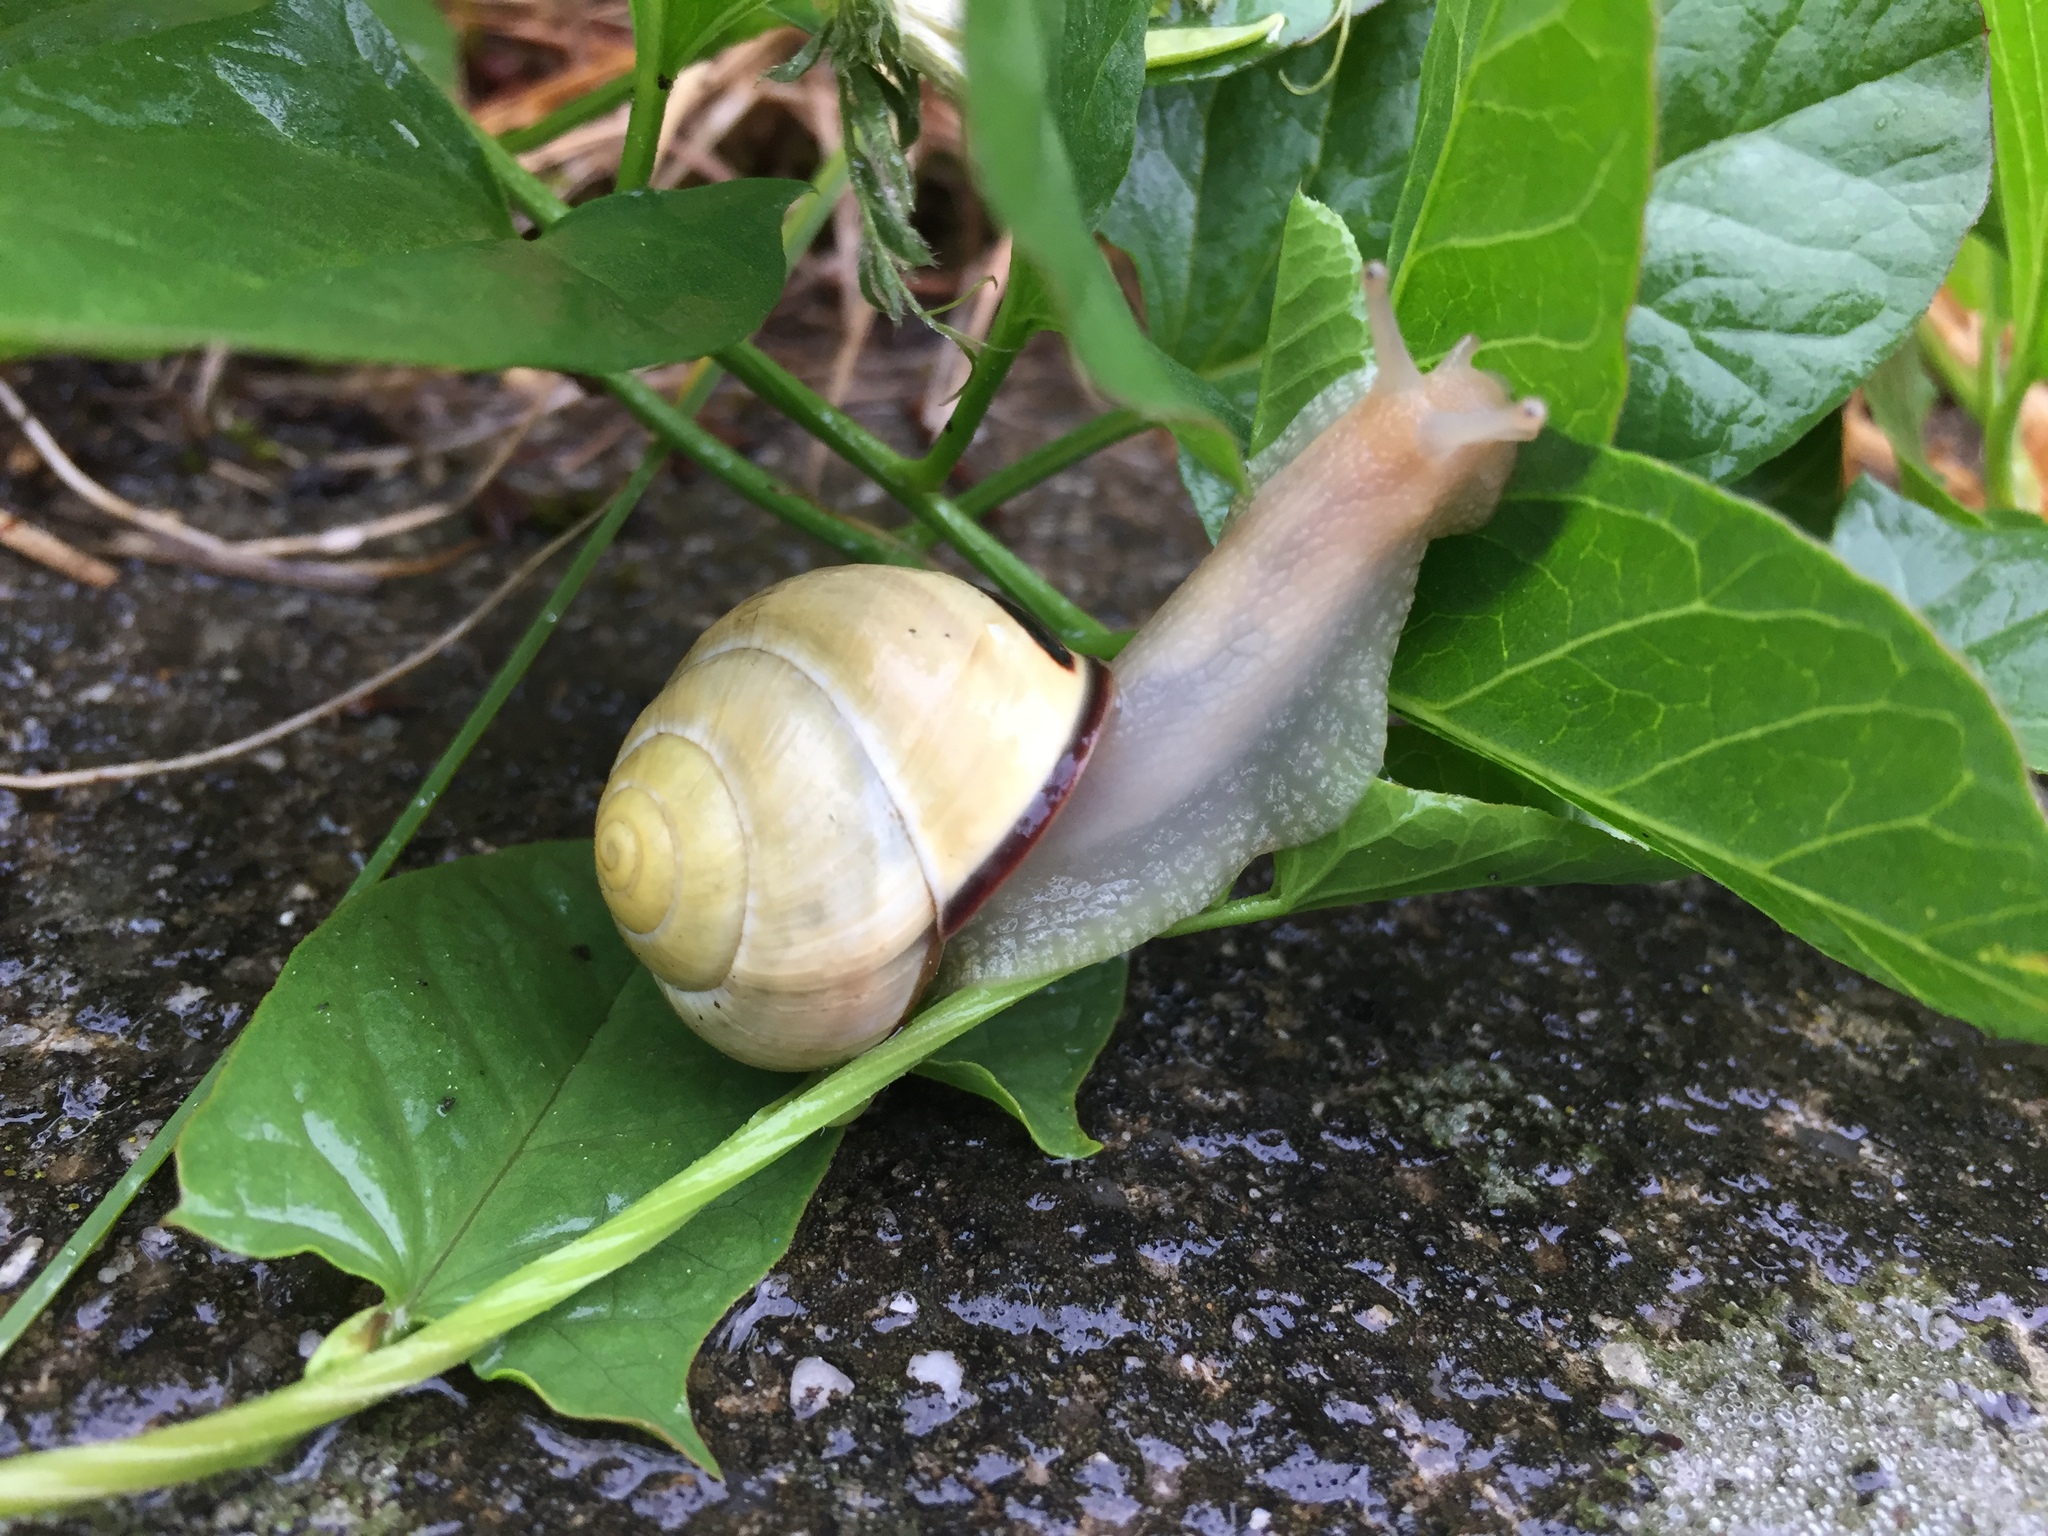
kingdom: Animalia
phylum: Mollusca
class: Gastropoda
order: Stylommatophora
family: Helicidae
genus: Cepaea
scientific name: Cepaea nemoralis
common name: Grovesnail
